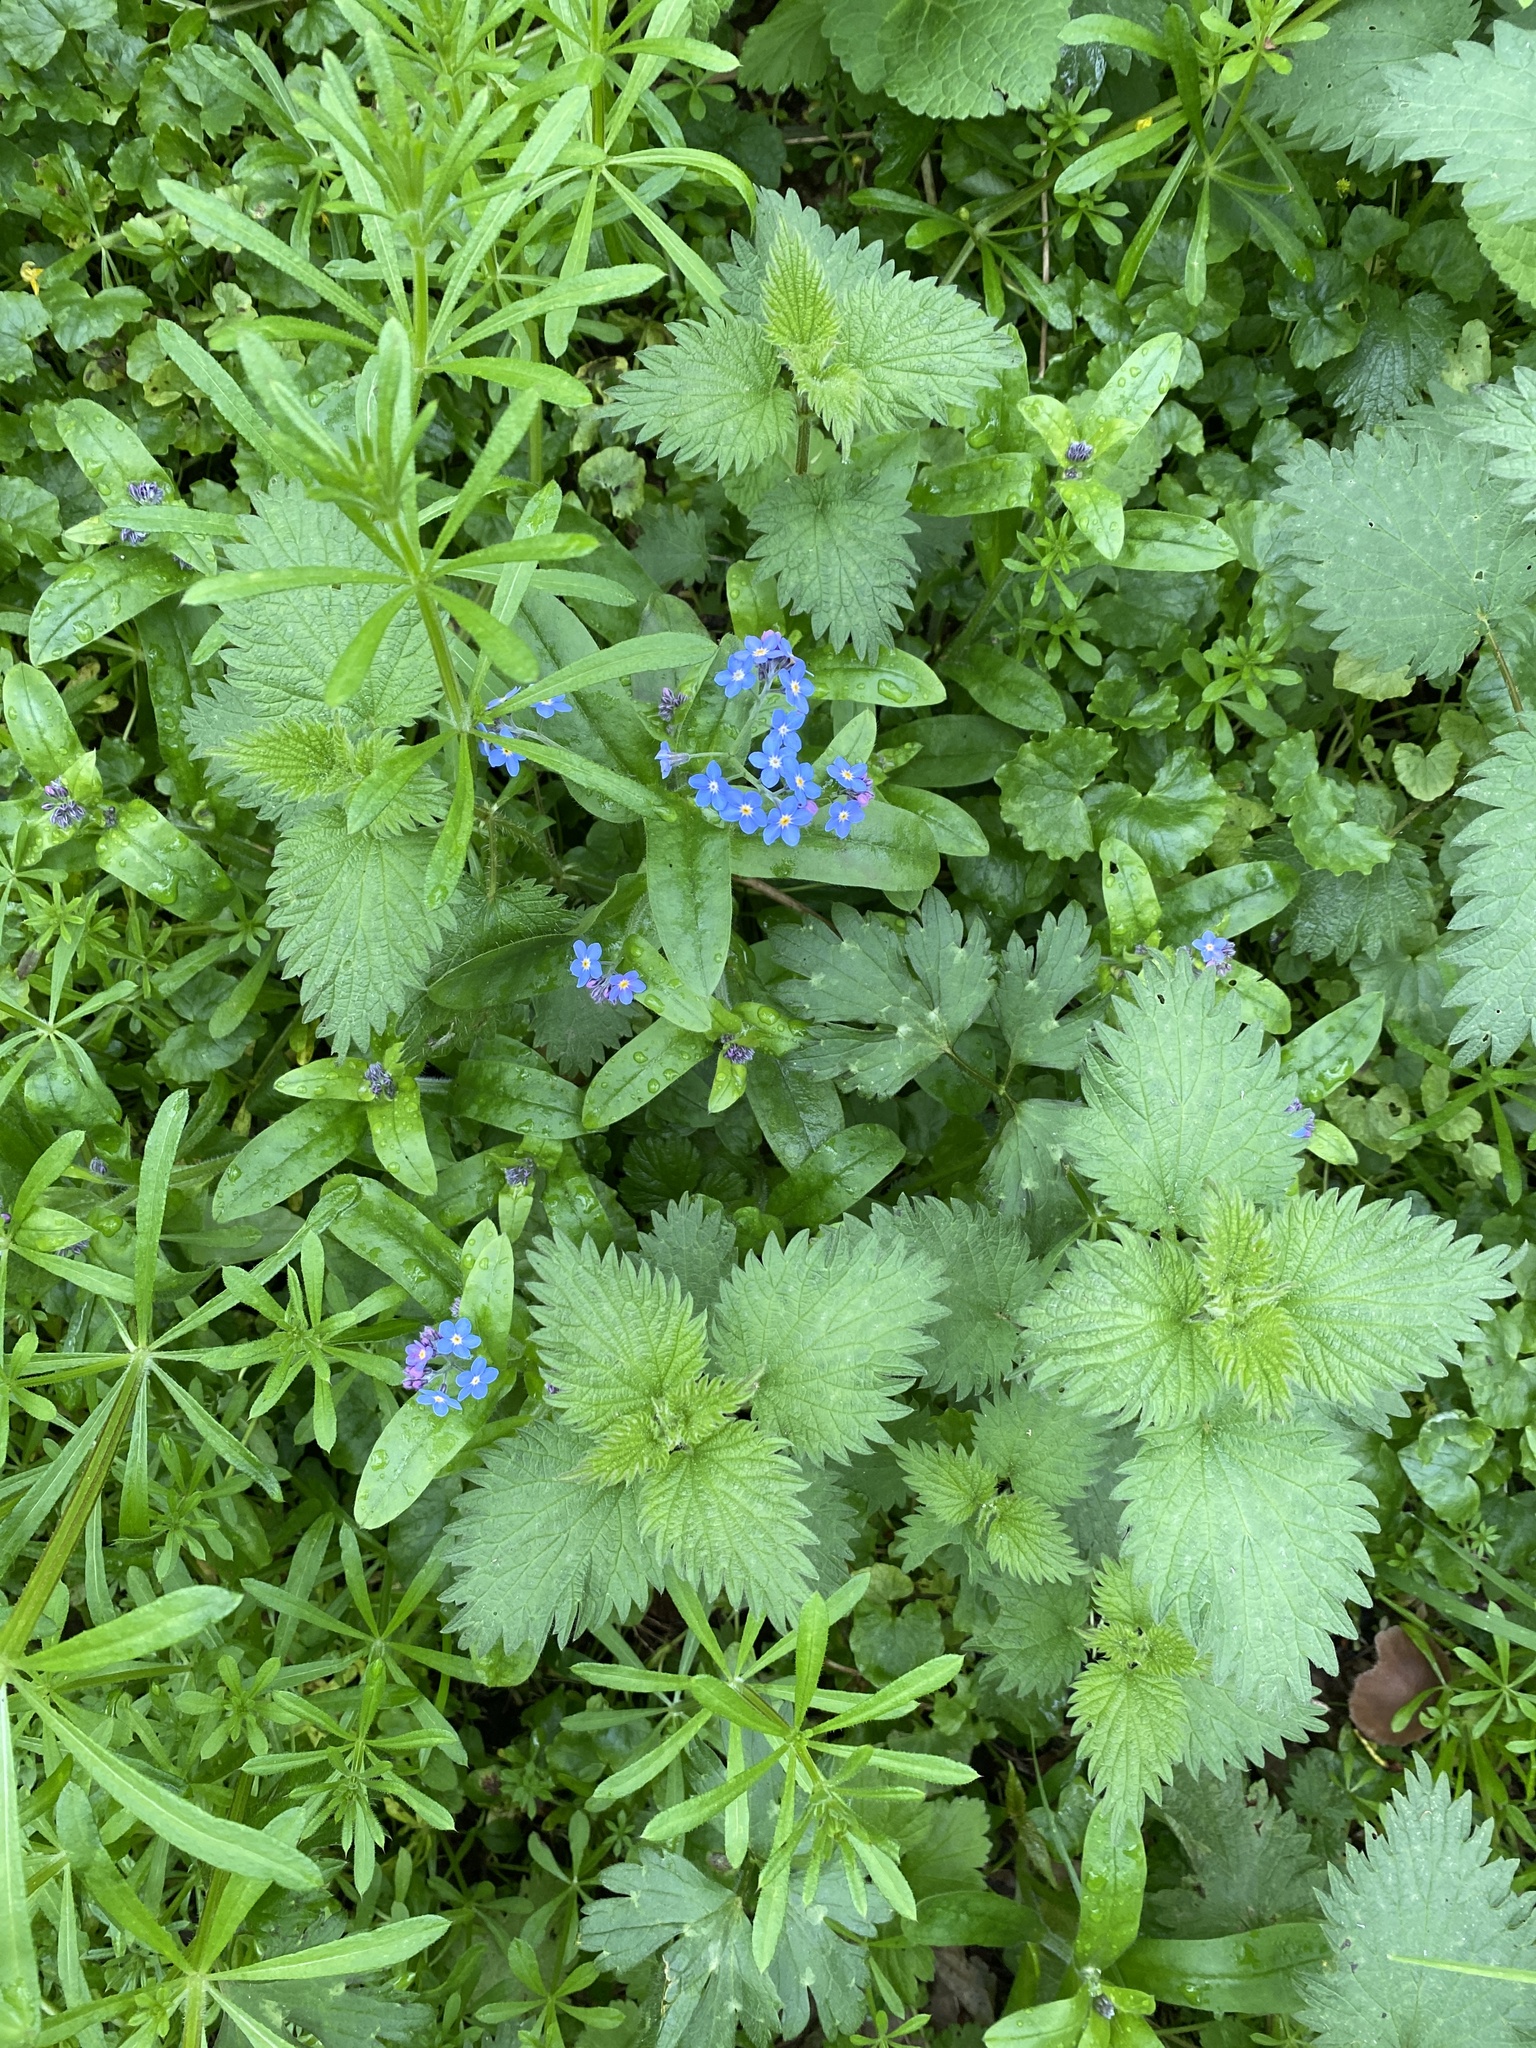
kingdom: Plantae
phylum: Tracheophyta
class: Magnoliopsida
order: Boraginales
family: Boraginaceae
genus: Myosotis
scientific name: Myosotis sylvatica
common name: Wood forget-me-not
